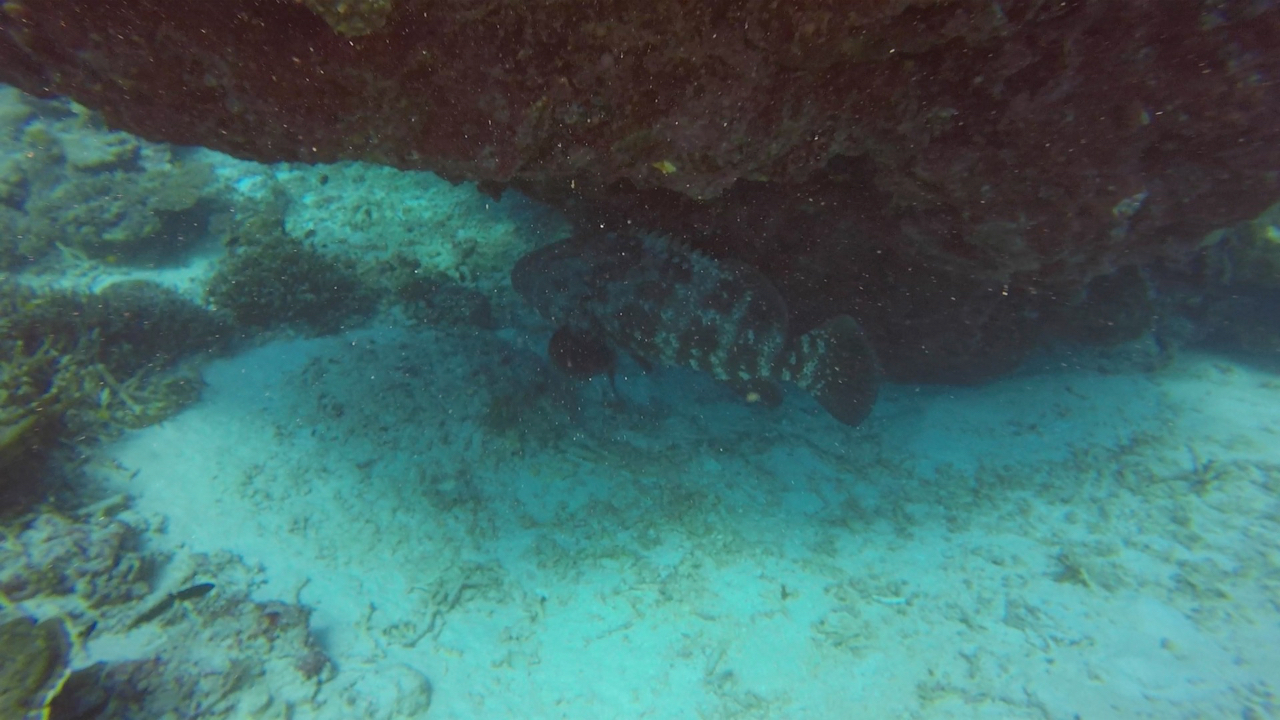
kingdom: Animalia
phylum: Chordata
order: Perciformes
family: Serranidae
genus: Epinephelus
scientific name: Epinephelus malabaricus
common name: Malabar grouper
